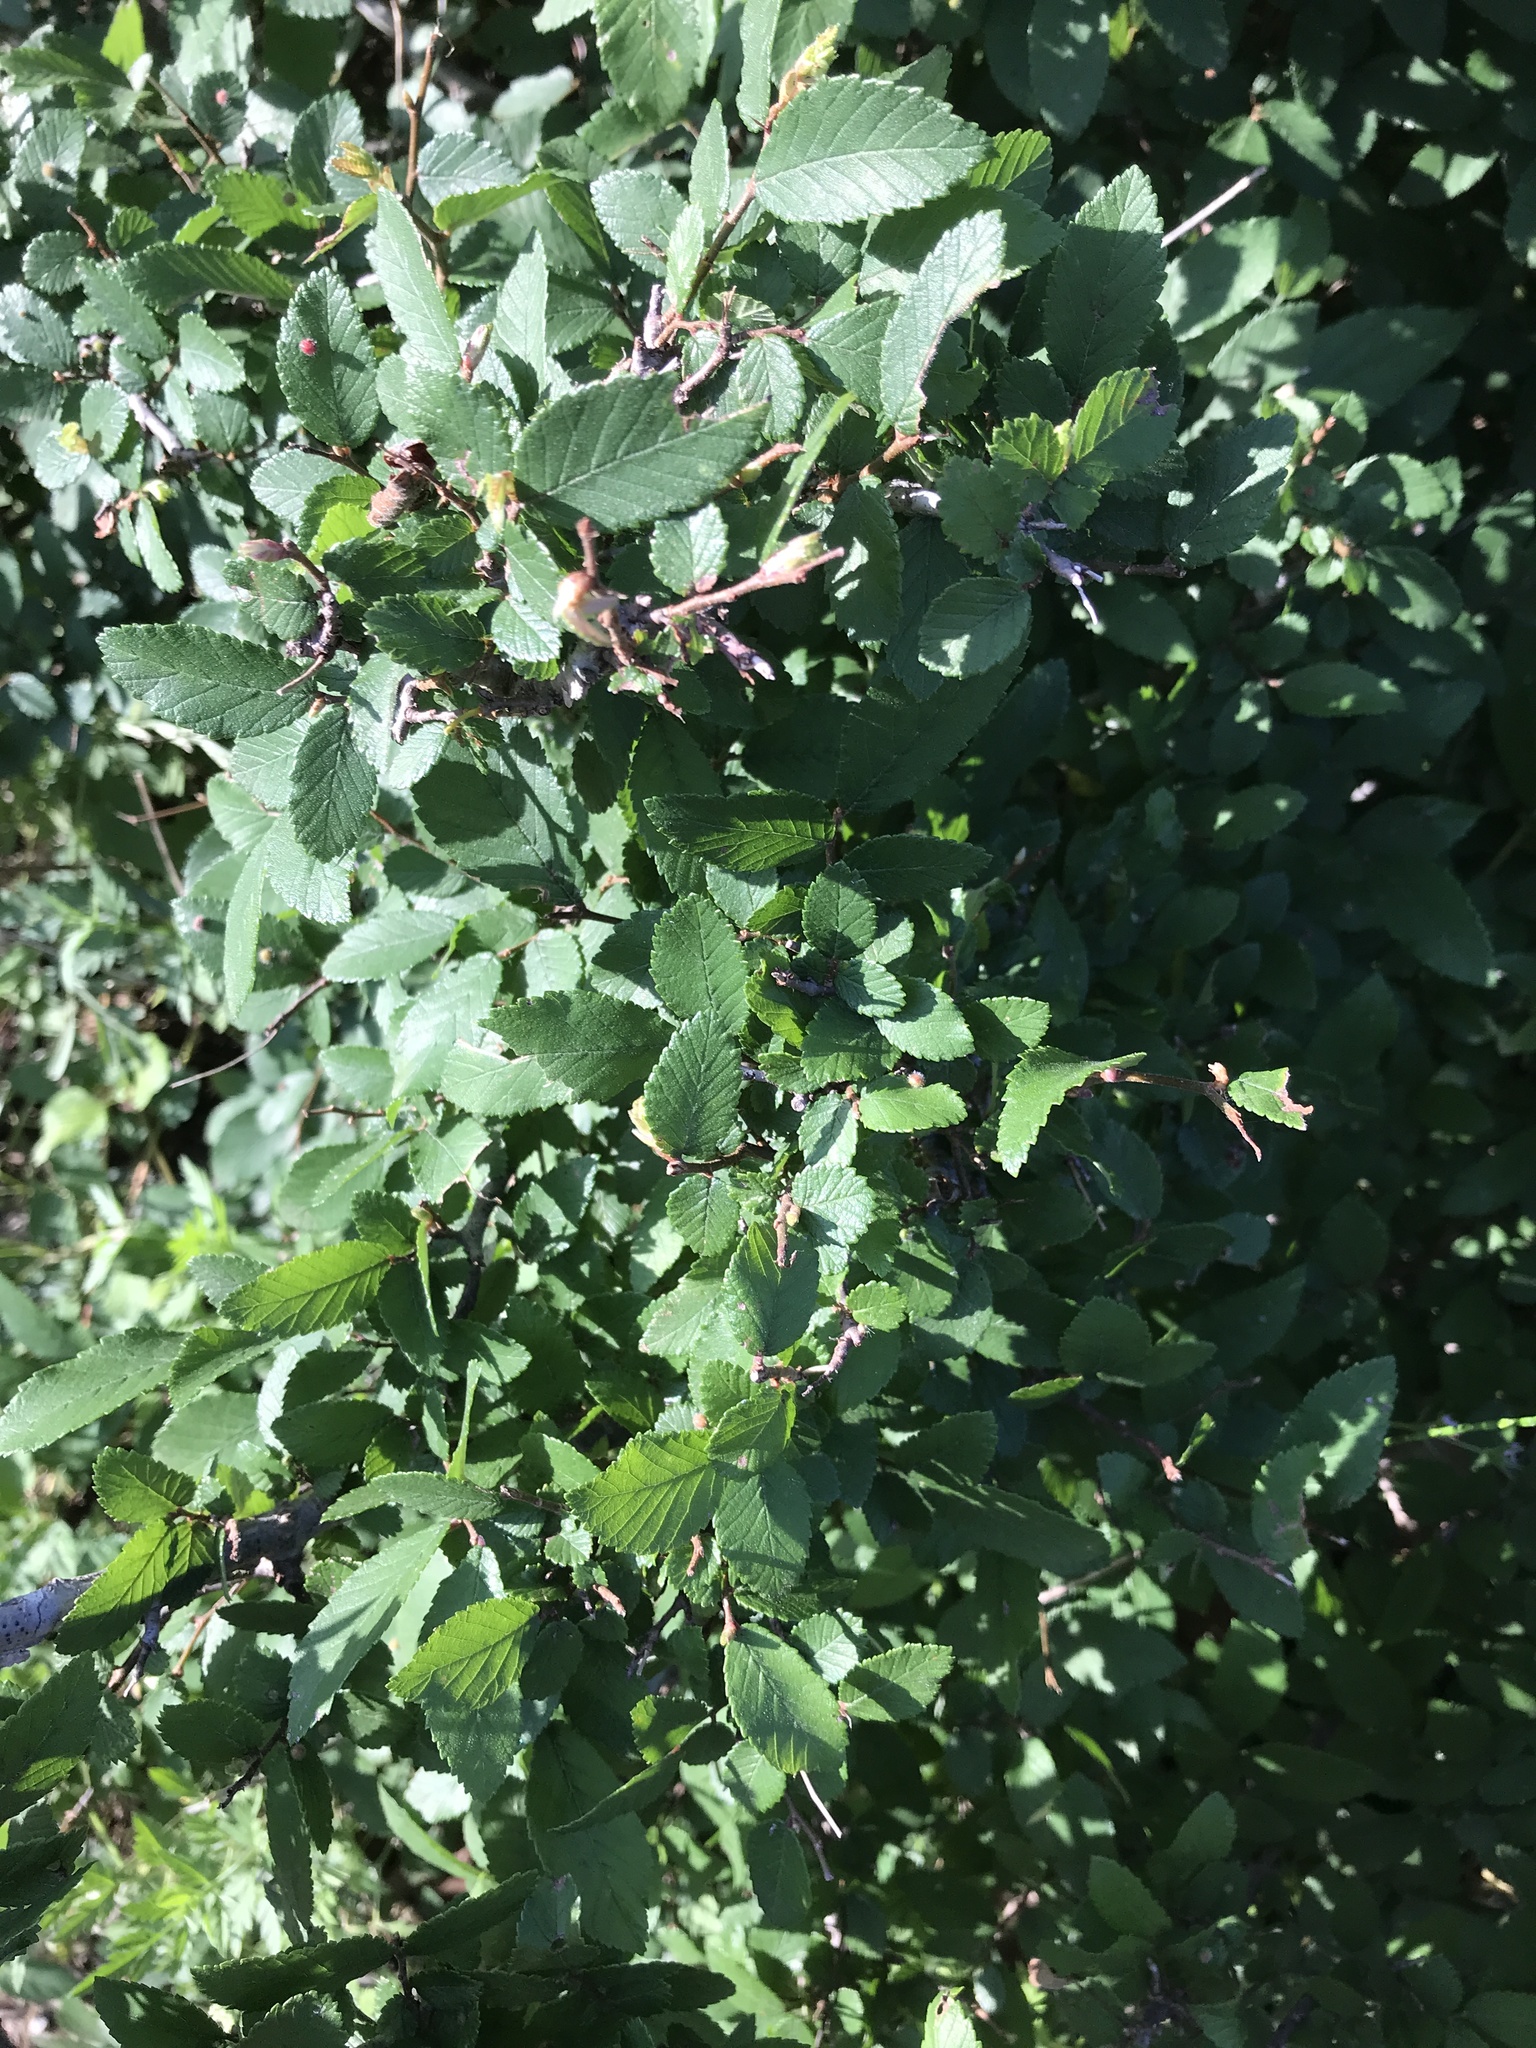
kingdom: Plantae
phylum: Tracheophyta
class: Magnoliopsida
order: Rosales
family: Ulmaceae
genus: Ulmus
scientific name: Ulmus crassifolia
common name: Basket elm
